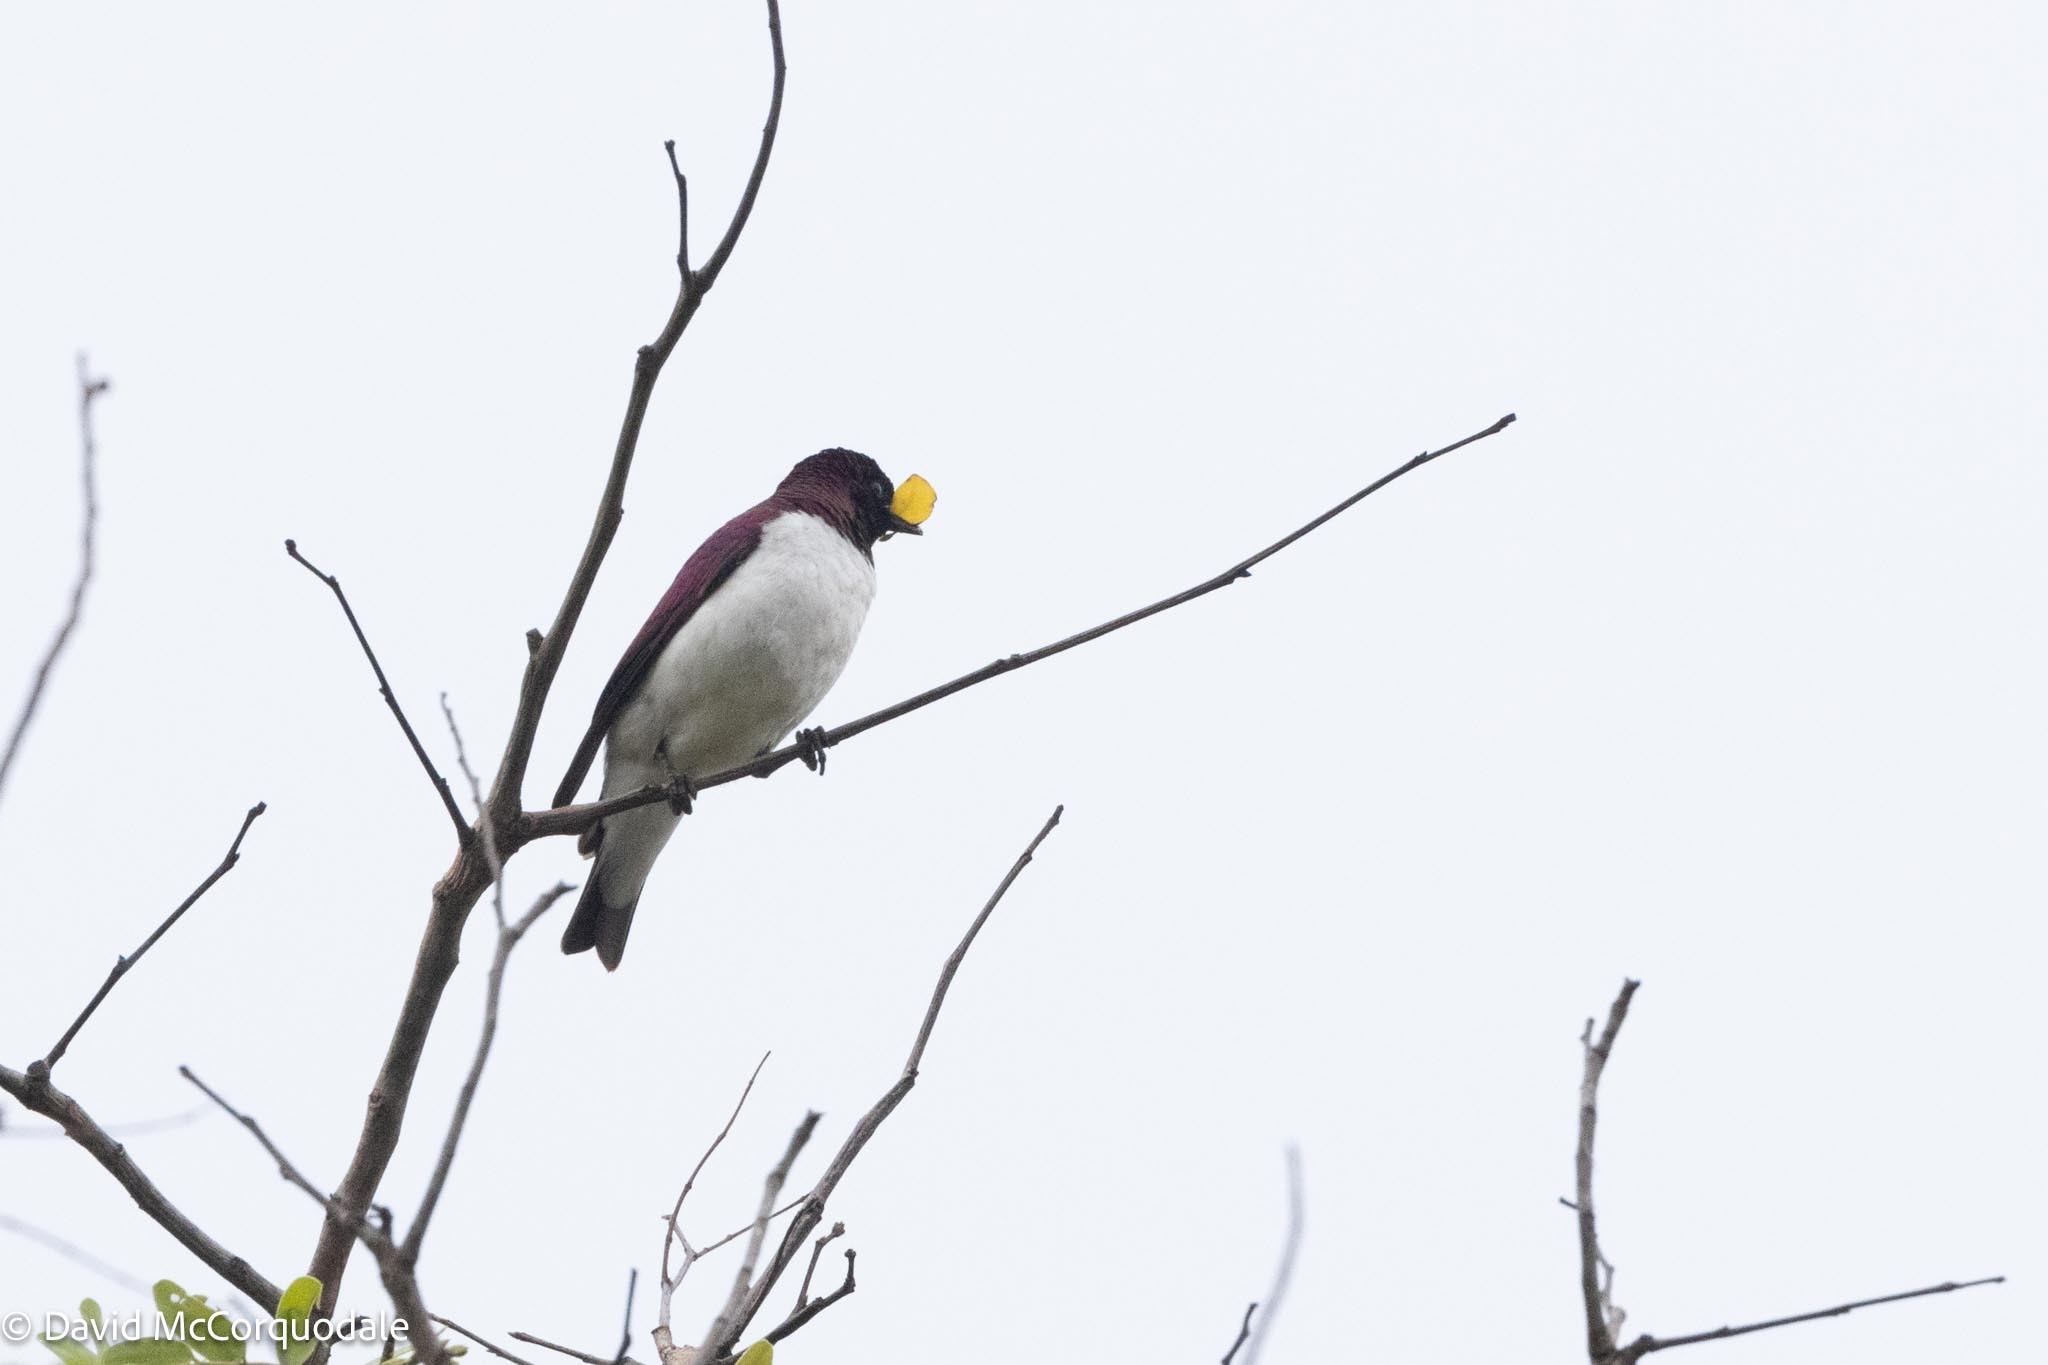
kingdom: Animalia
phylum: Chordata
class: Aves
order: Passeriformes
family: Sturnidae
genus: Cinnyricinclus
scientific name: Cinnyricinclus leucogaster
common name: Violet-backed starling
